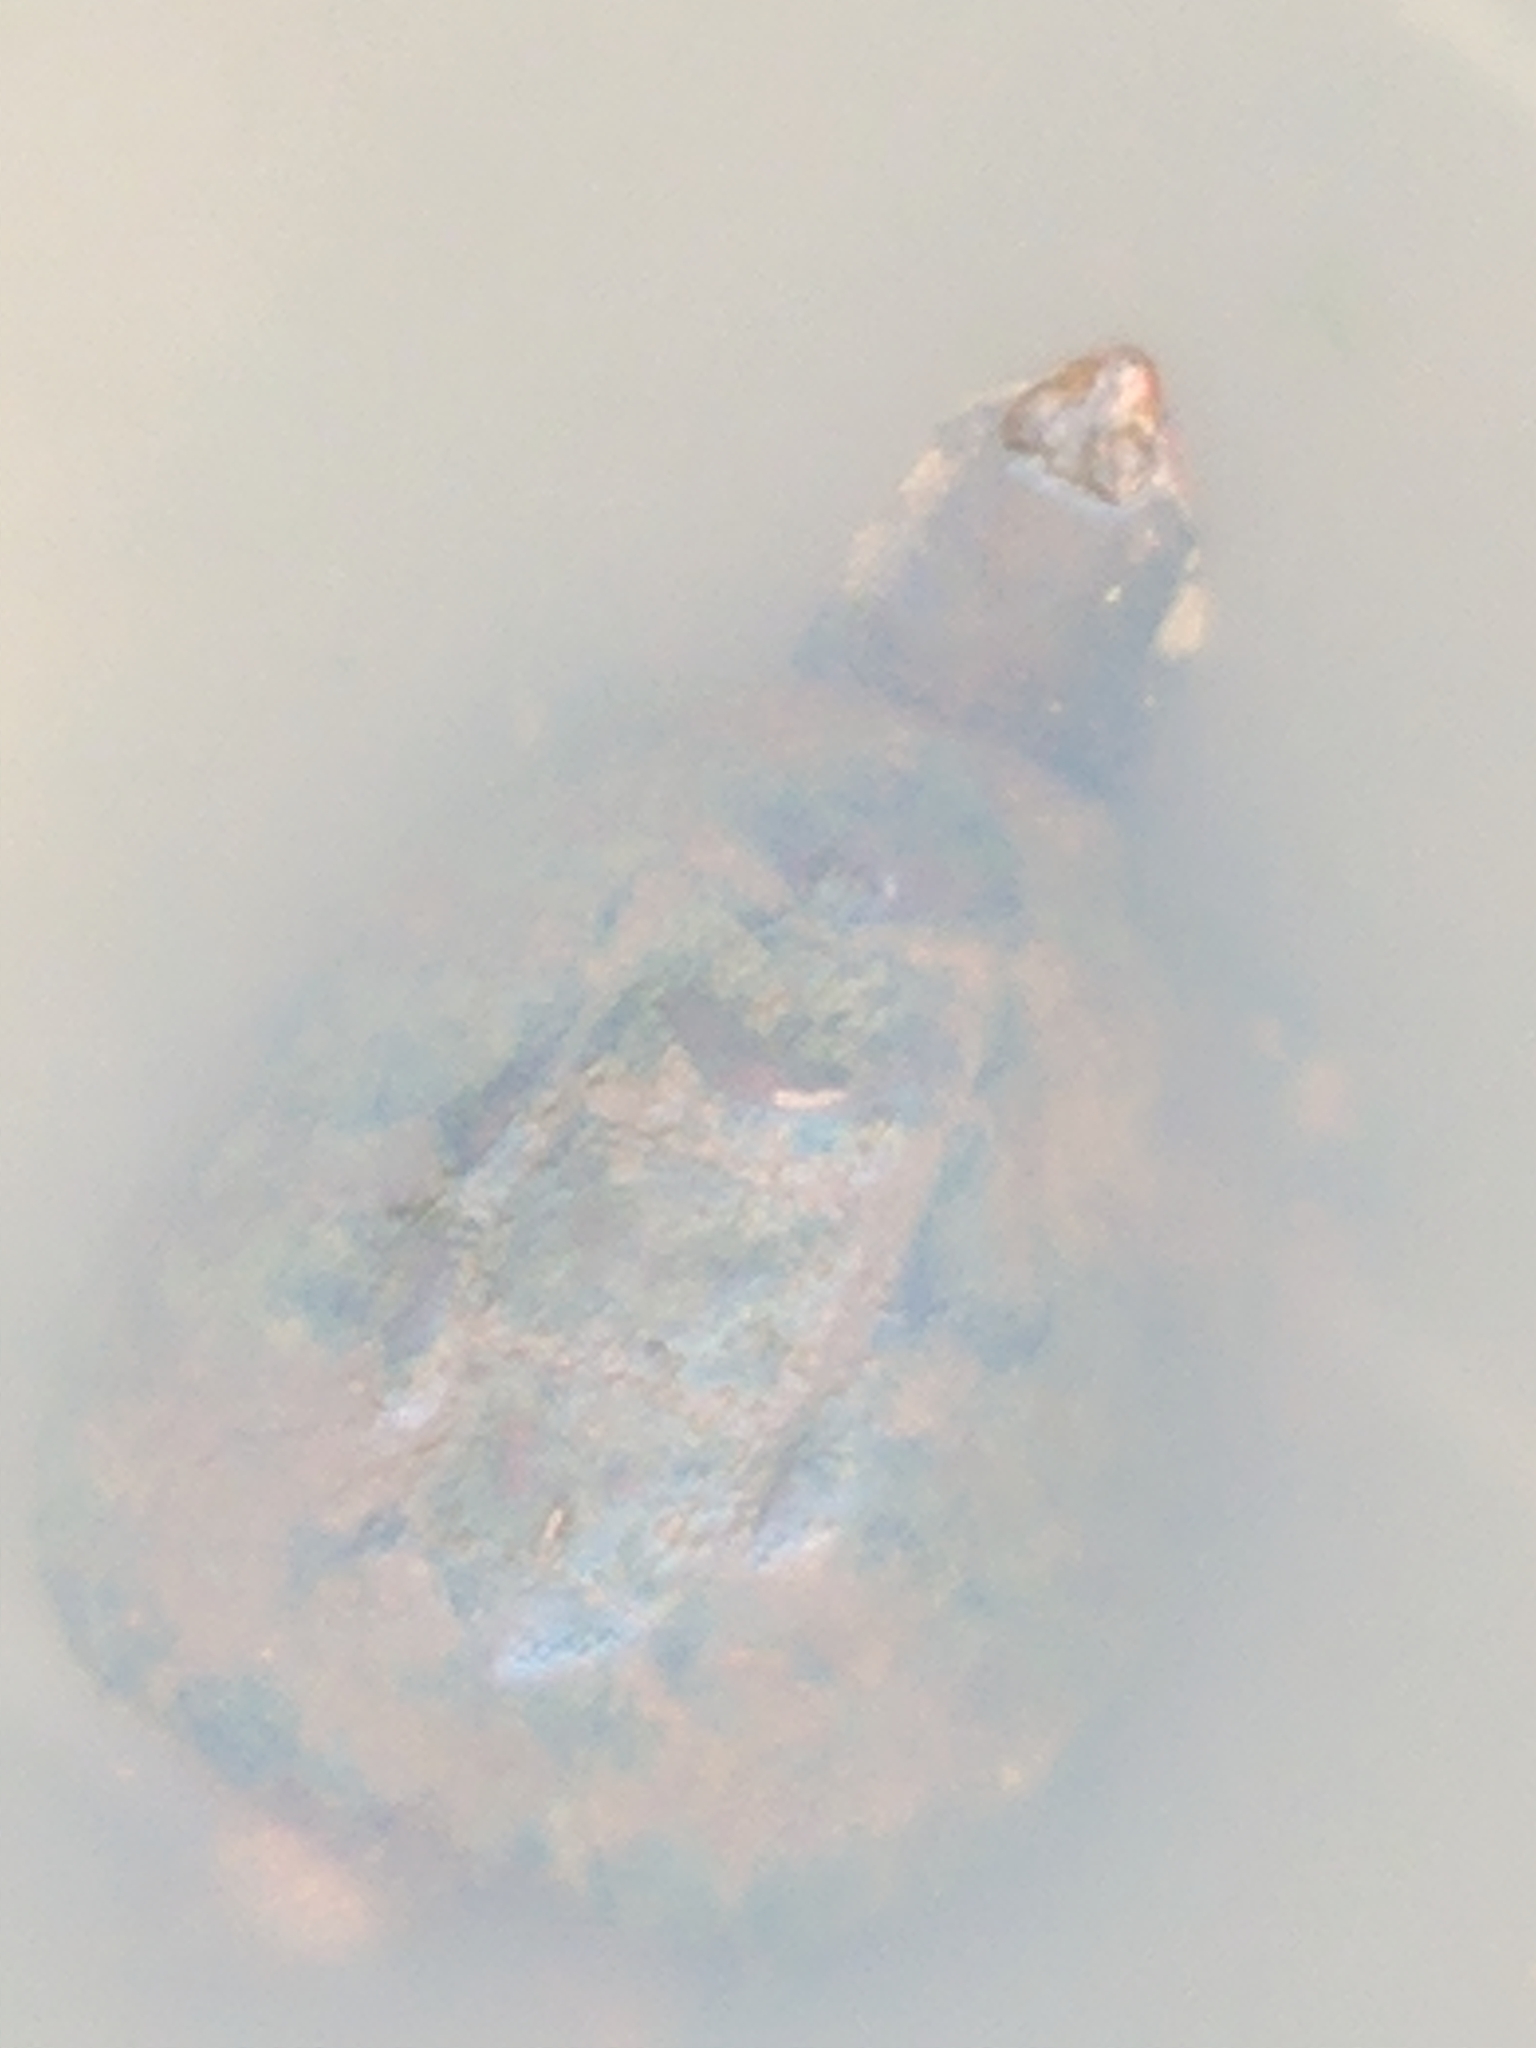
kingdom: Animalia
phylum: Chordata
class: Testudines
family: Chelydridae
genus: Chelydra
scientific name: Chelydra serpentina
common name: Common snapping turtle
